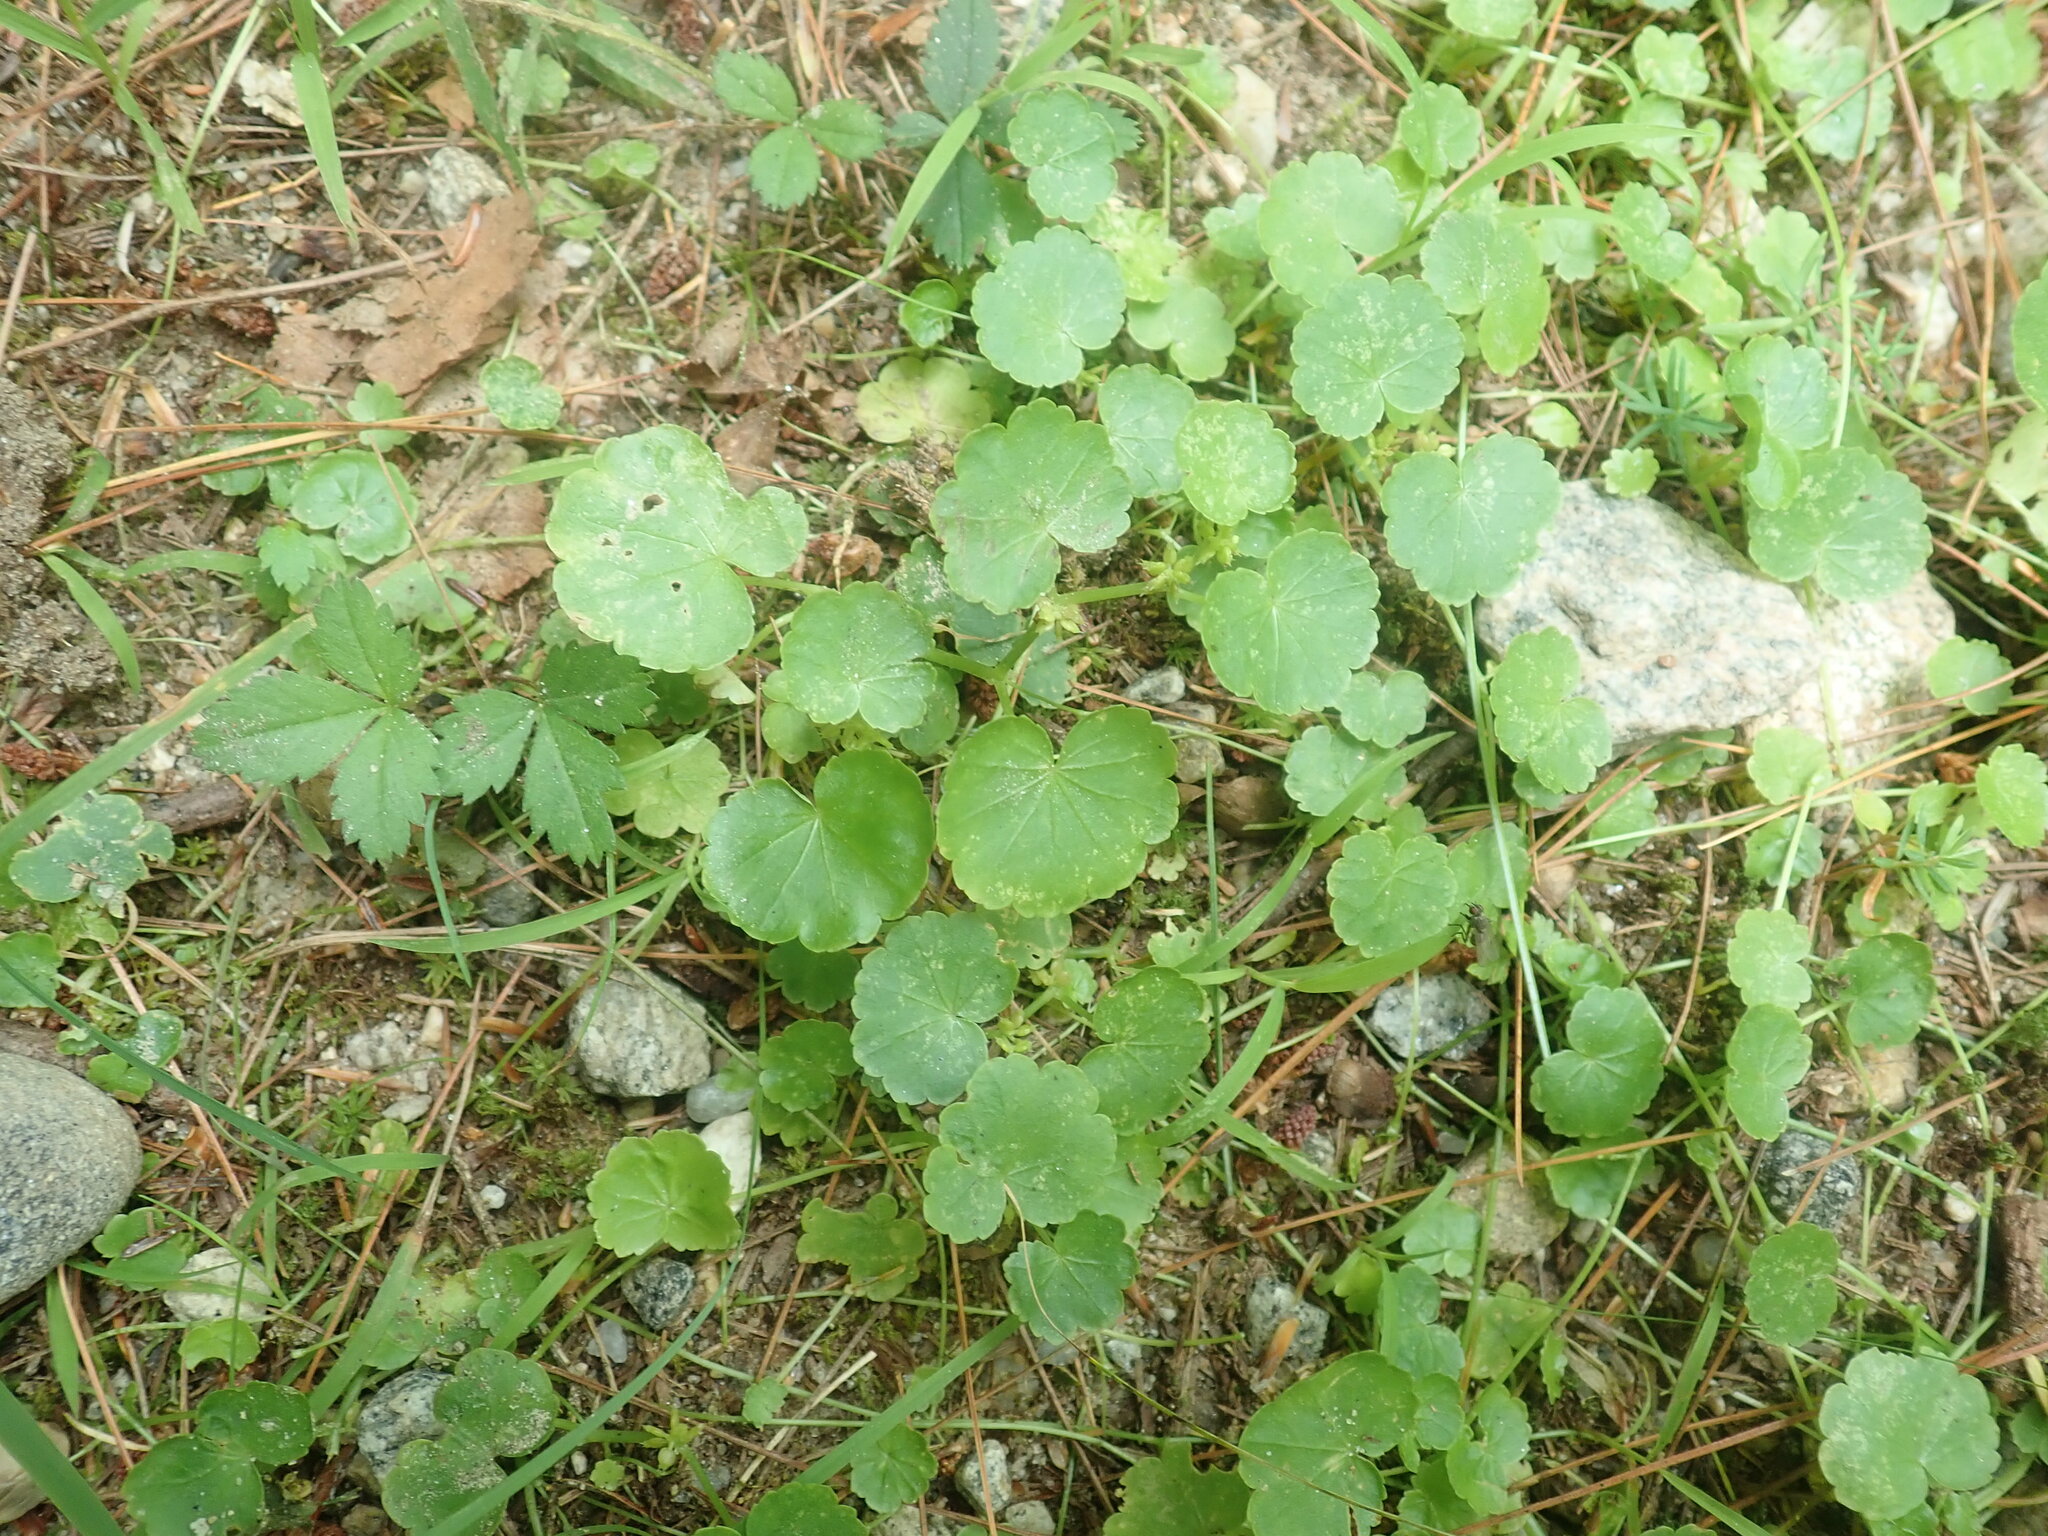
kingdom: Plantae
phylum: Tracheophyta
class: Magnoliopsida
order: Apiales
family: Araliaceae
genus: Hydrocotyle
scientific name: Hydrocotyle americana
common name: American water-pennywort
